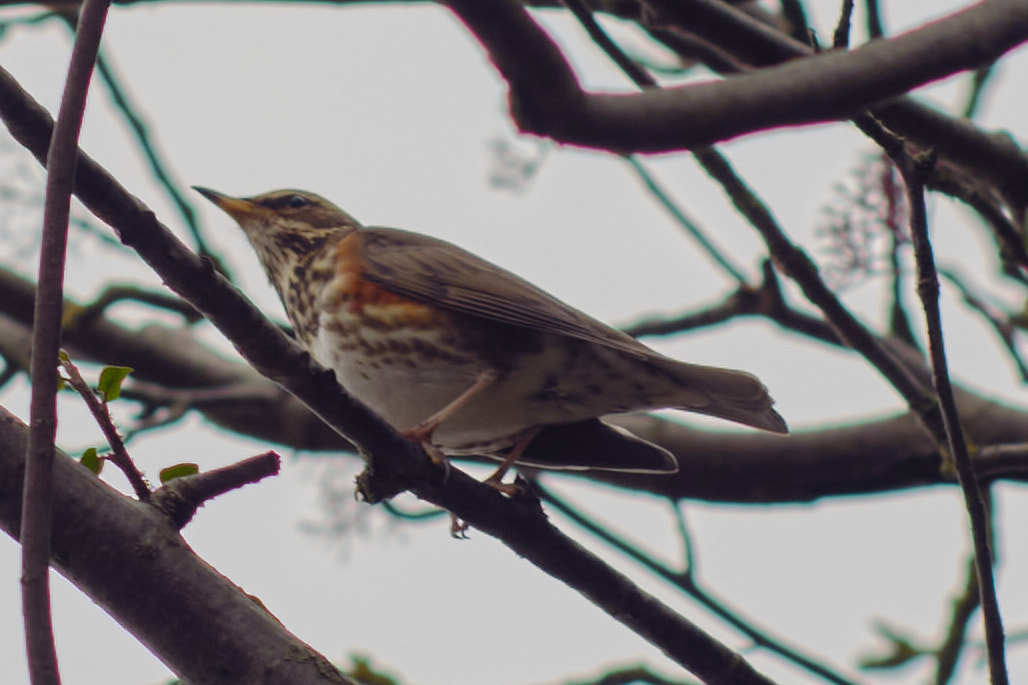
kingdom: Animalia
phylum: Chordata
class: Aves
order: Passeriformes
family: Turdidae
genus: Turdus
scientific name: Turdus iliacus
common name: Redwing
